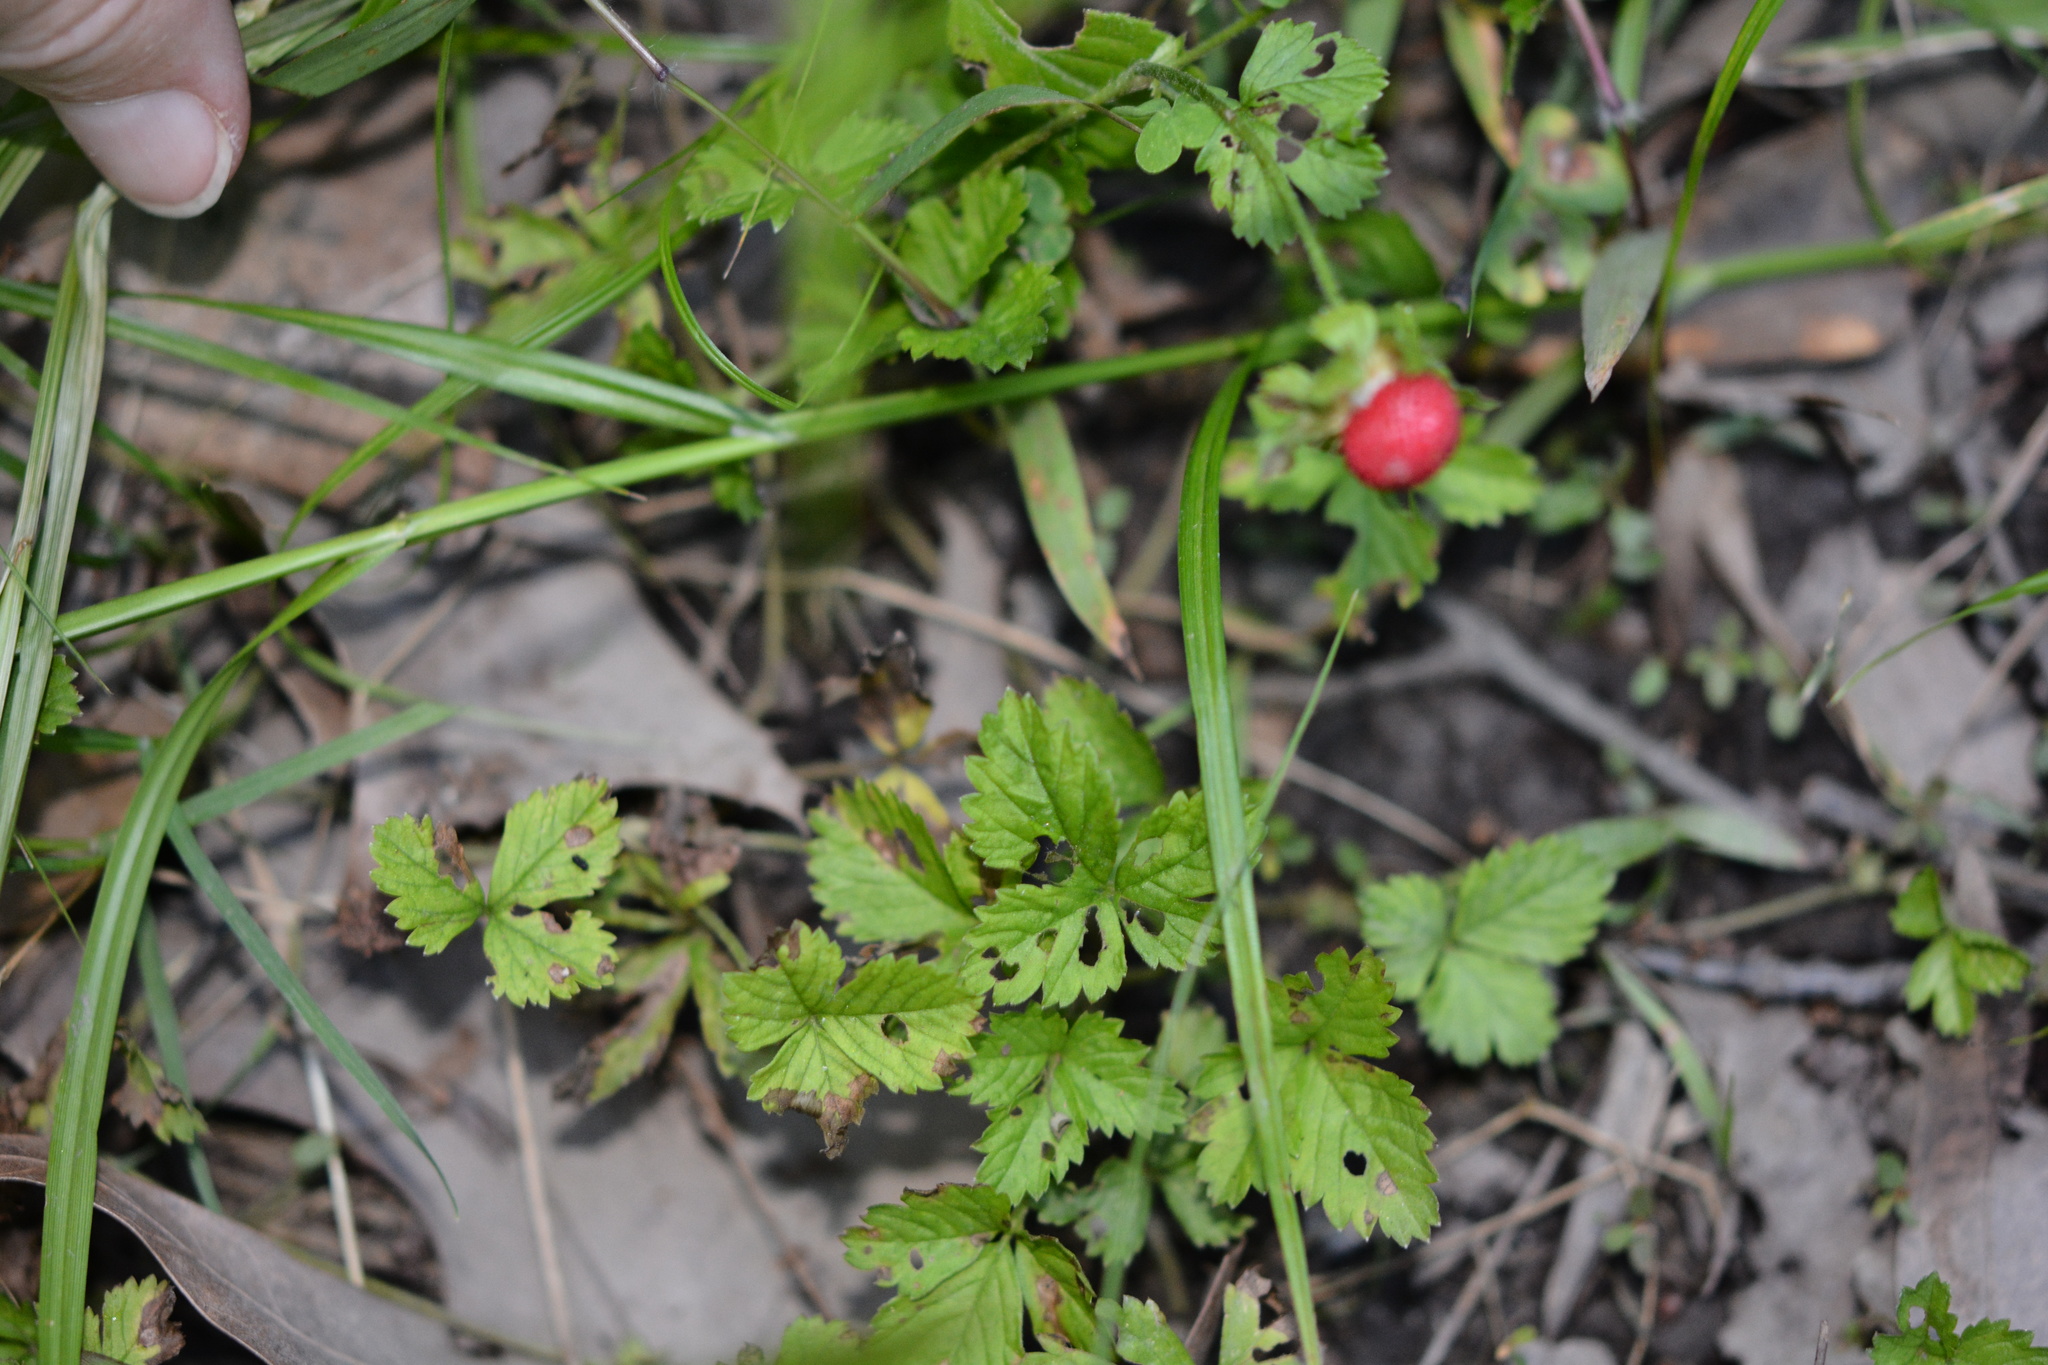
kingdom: Plantae
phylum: Tracheophyta
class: Magnoliopsida
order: Rosales
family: Rosaceae
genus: Potentilla
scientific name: Potentilla indica
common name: Yellow-flowered strawberry
